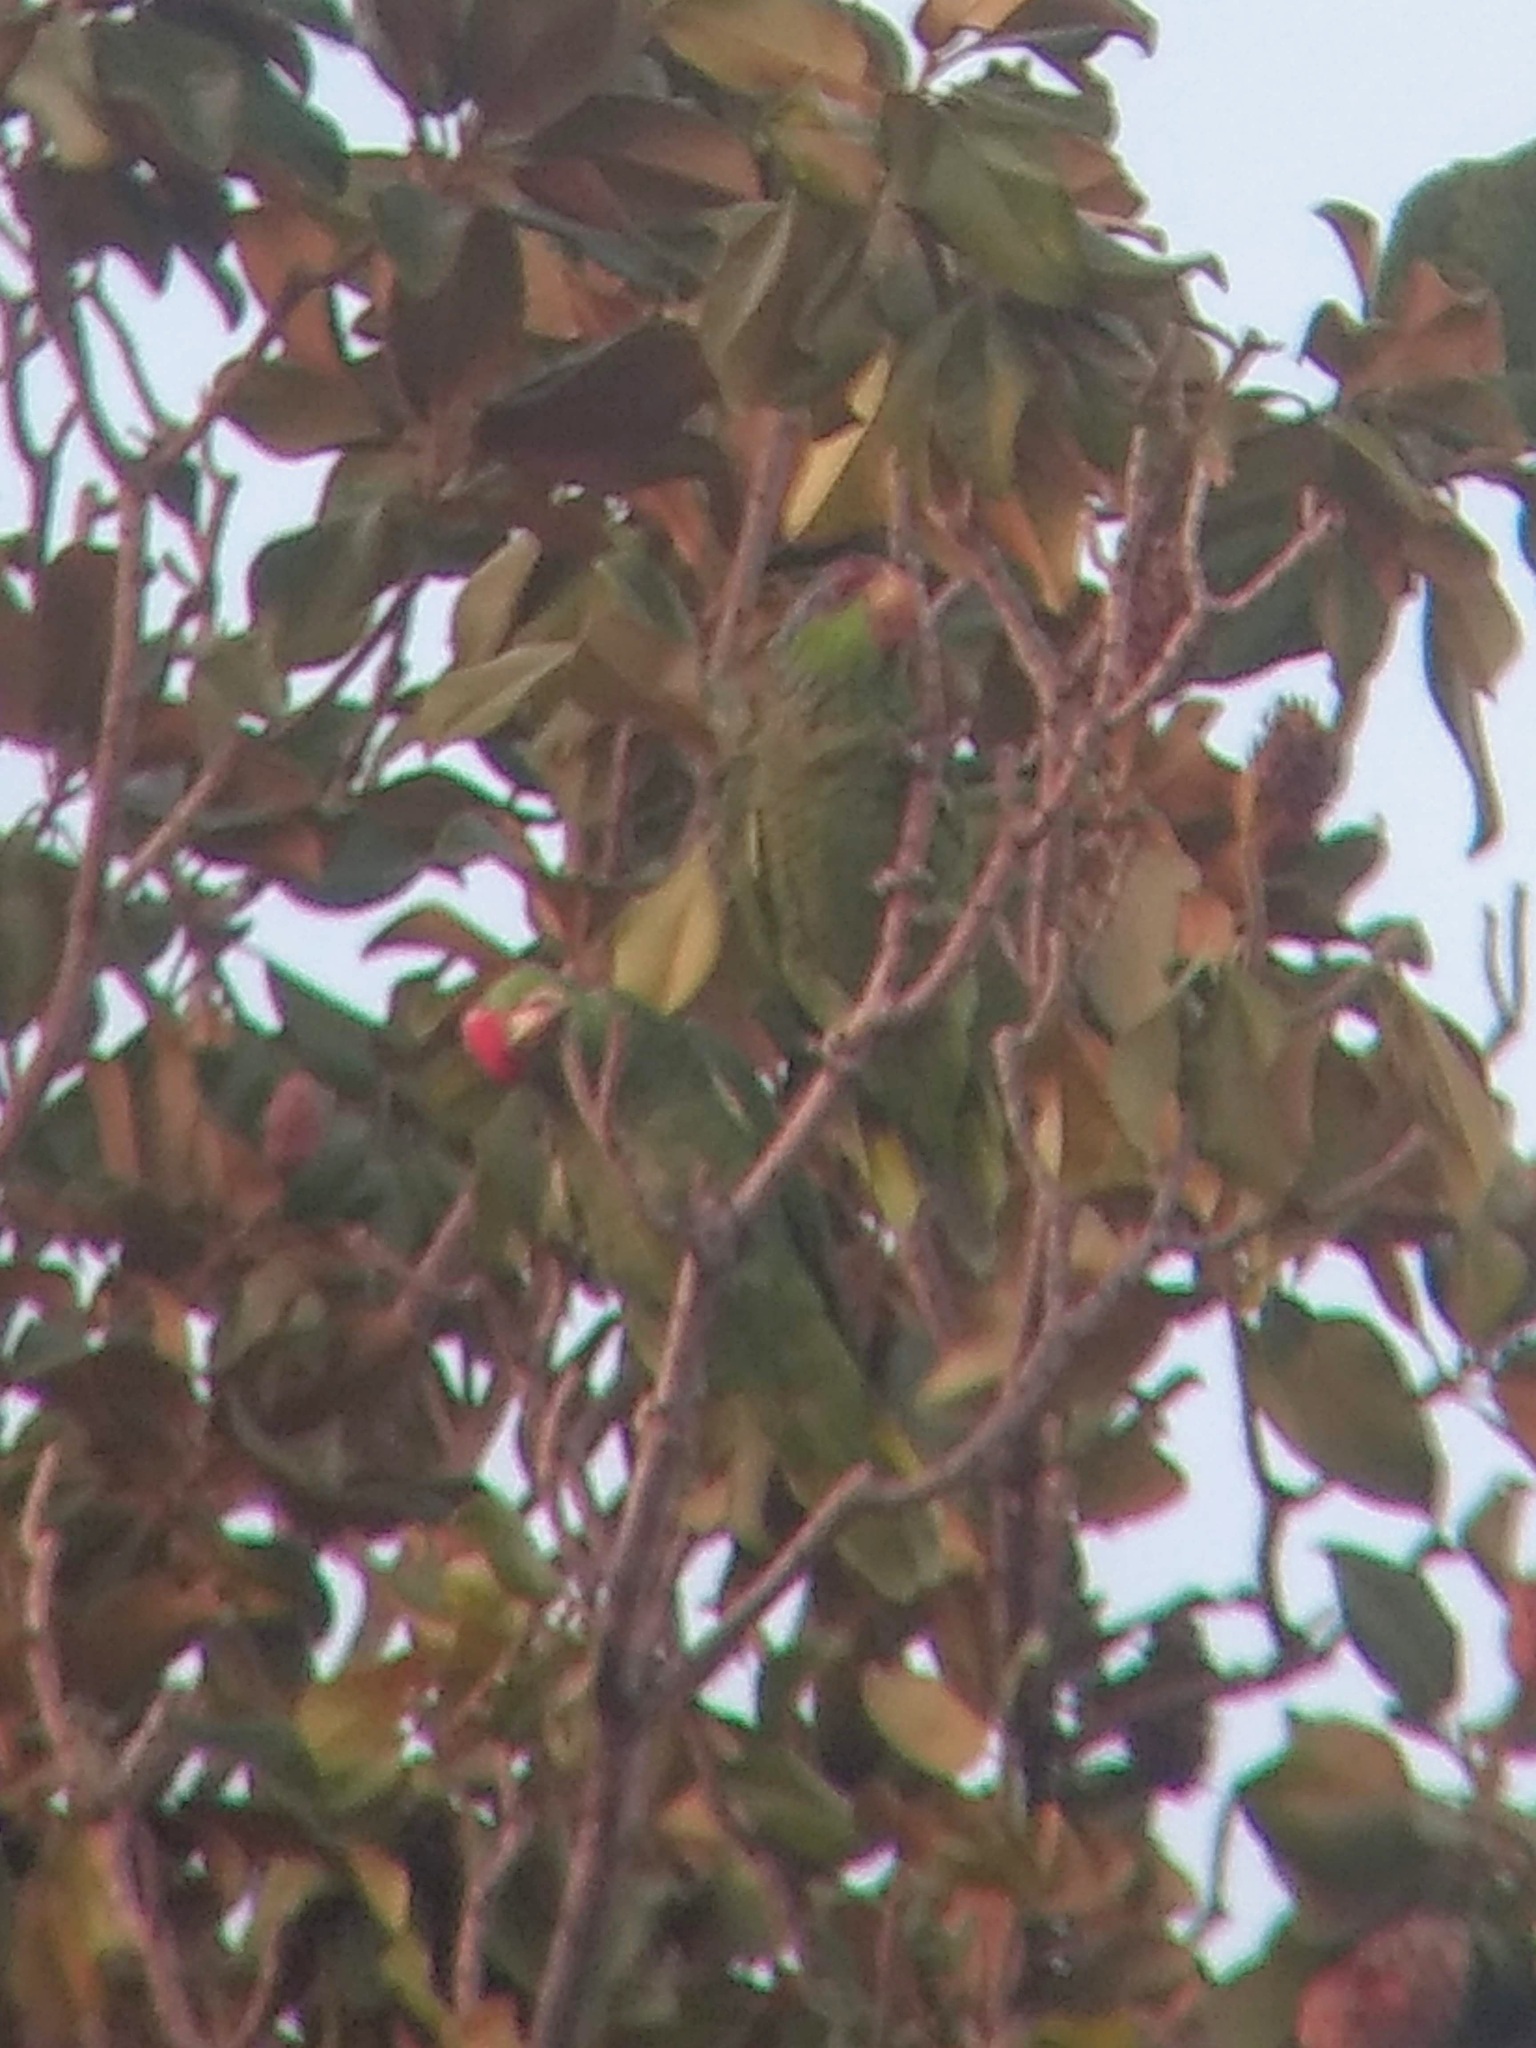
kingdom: Animalia
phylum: Chordata
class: Aves
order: Psittaciformes
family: Psittacidae
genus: Amazona
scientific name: Amazona finschi
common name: Lilac-crowned amazon
